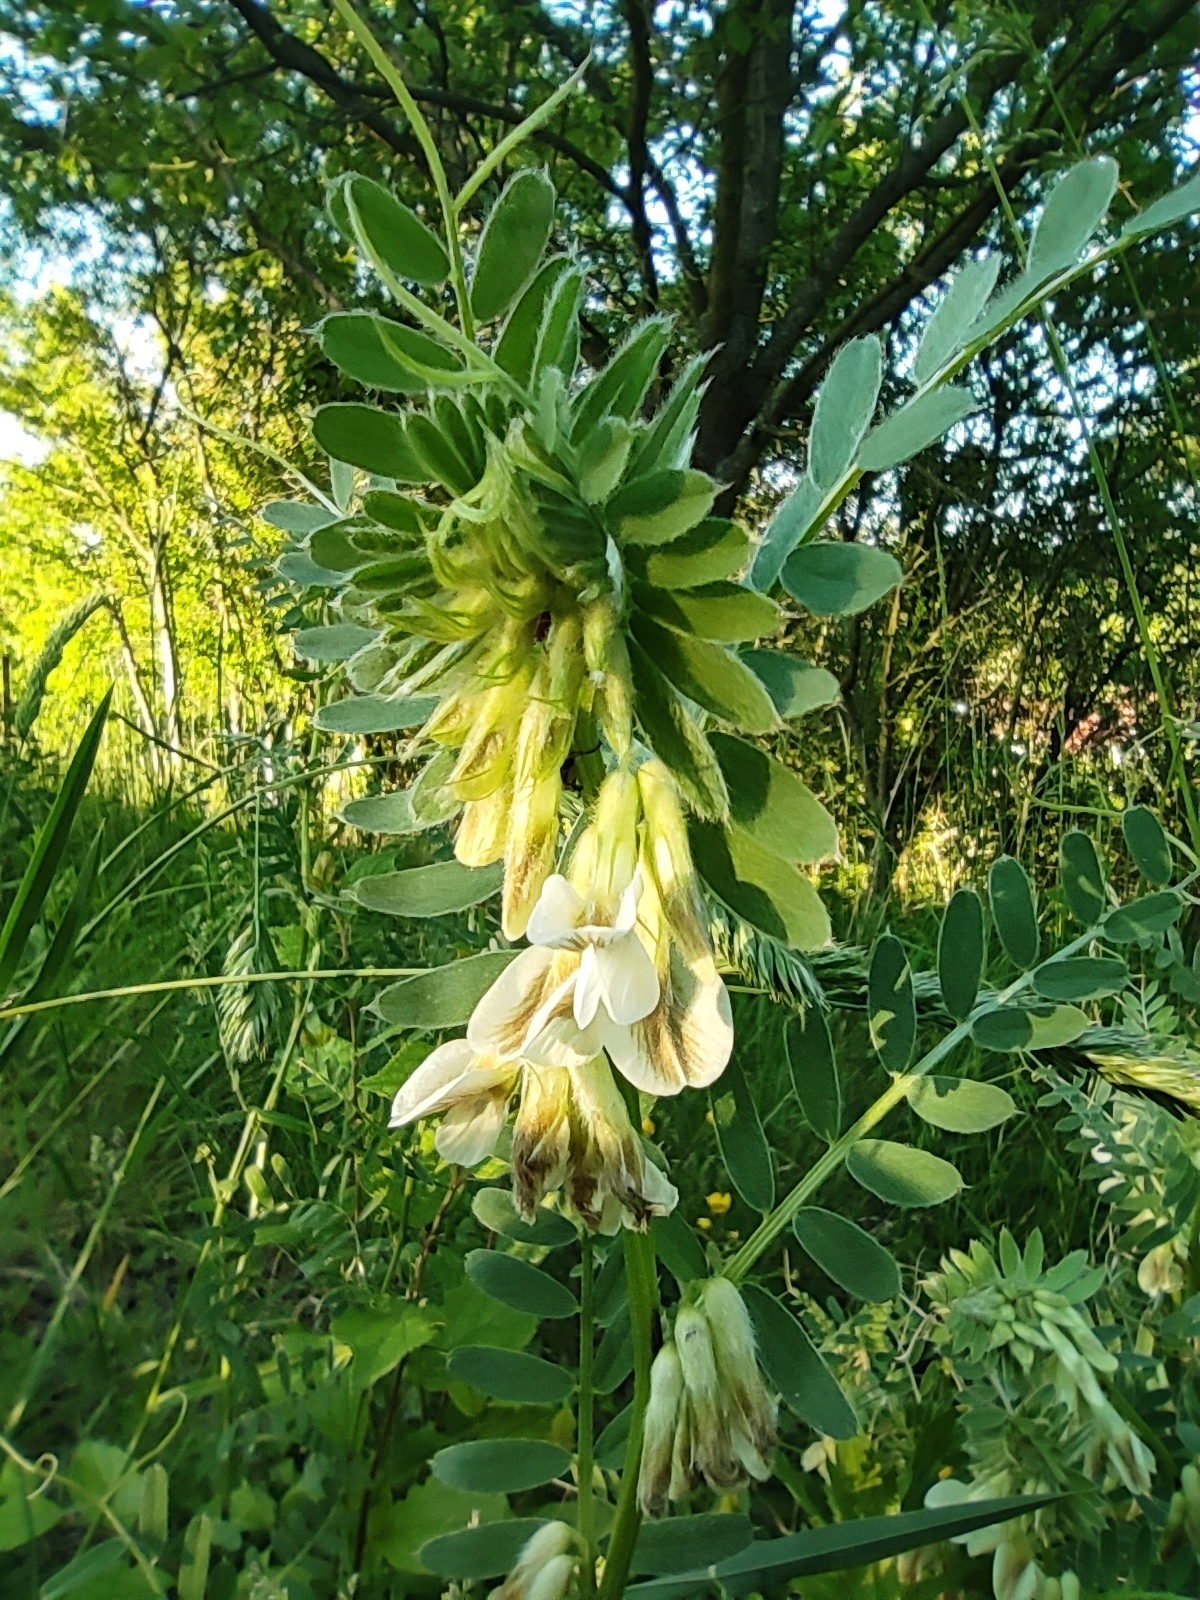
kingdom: Plantae
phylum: Tracheophyta
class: Magnoliopsida
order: Fabales
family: Fabaceae
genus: Vicia
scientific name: Vicia pannonica
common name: Hungarian vetch
